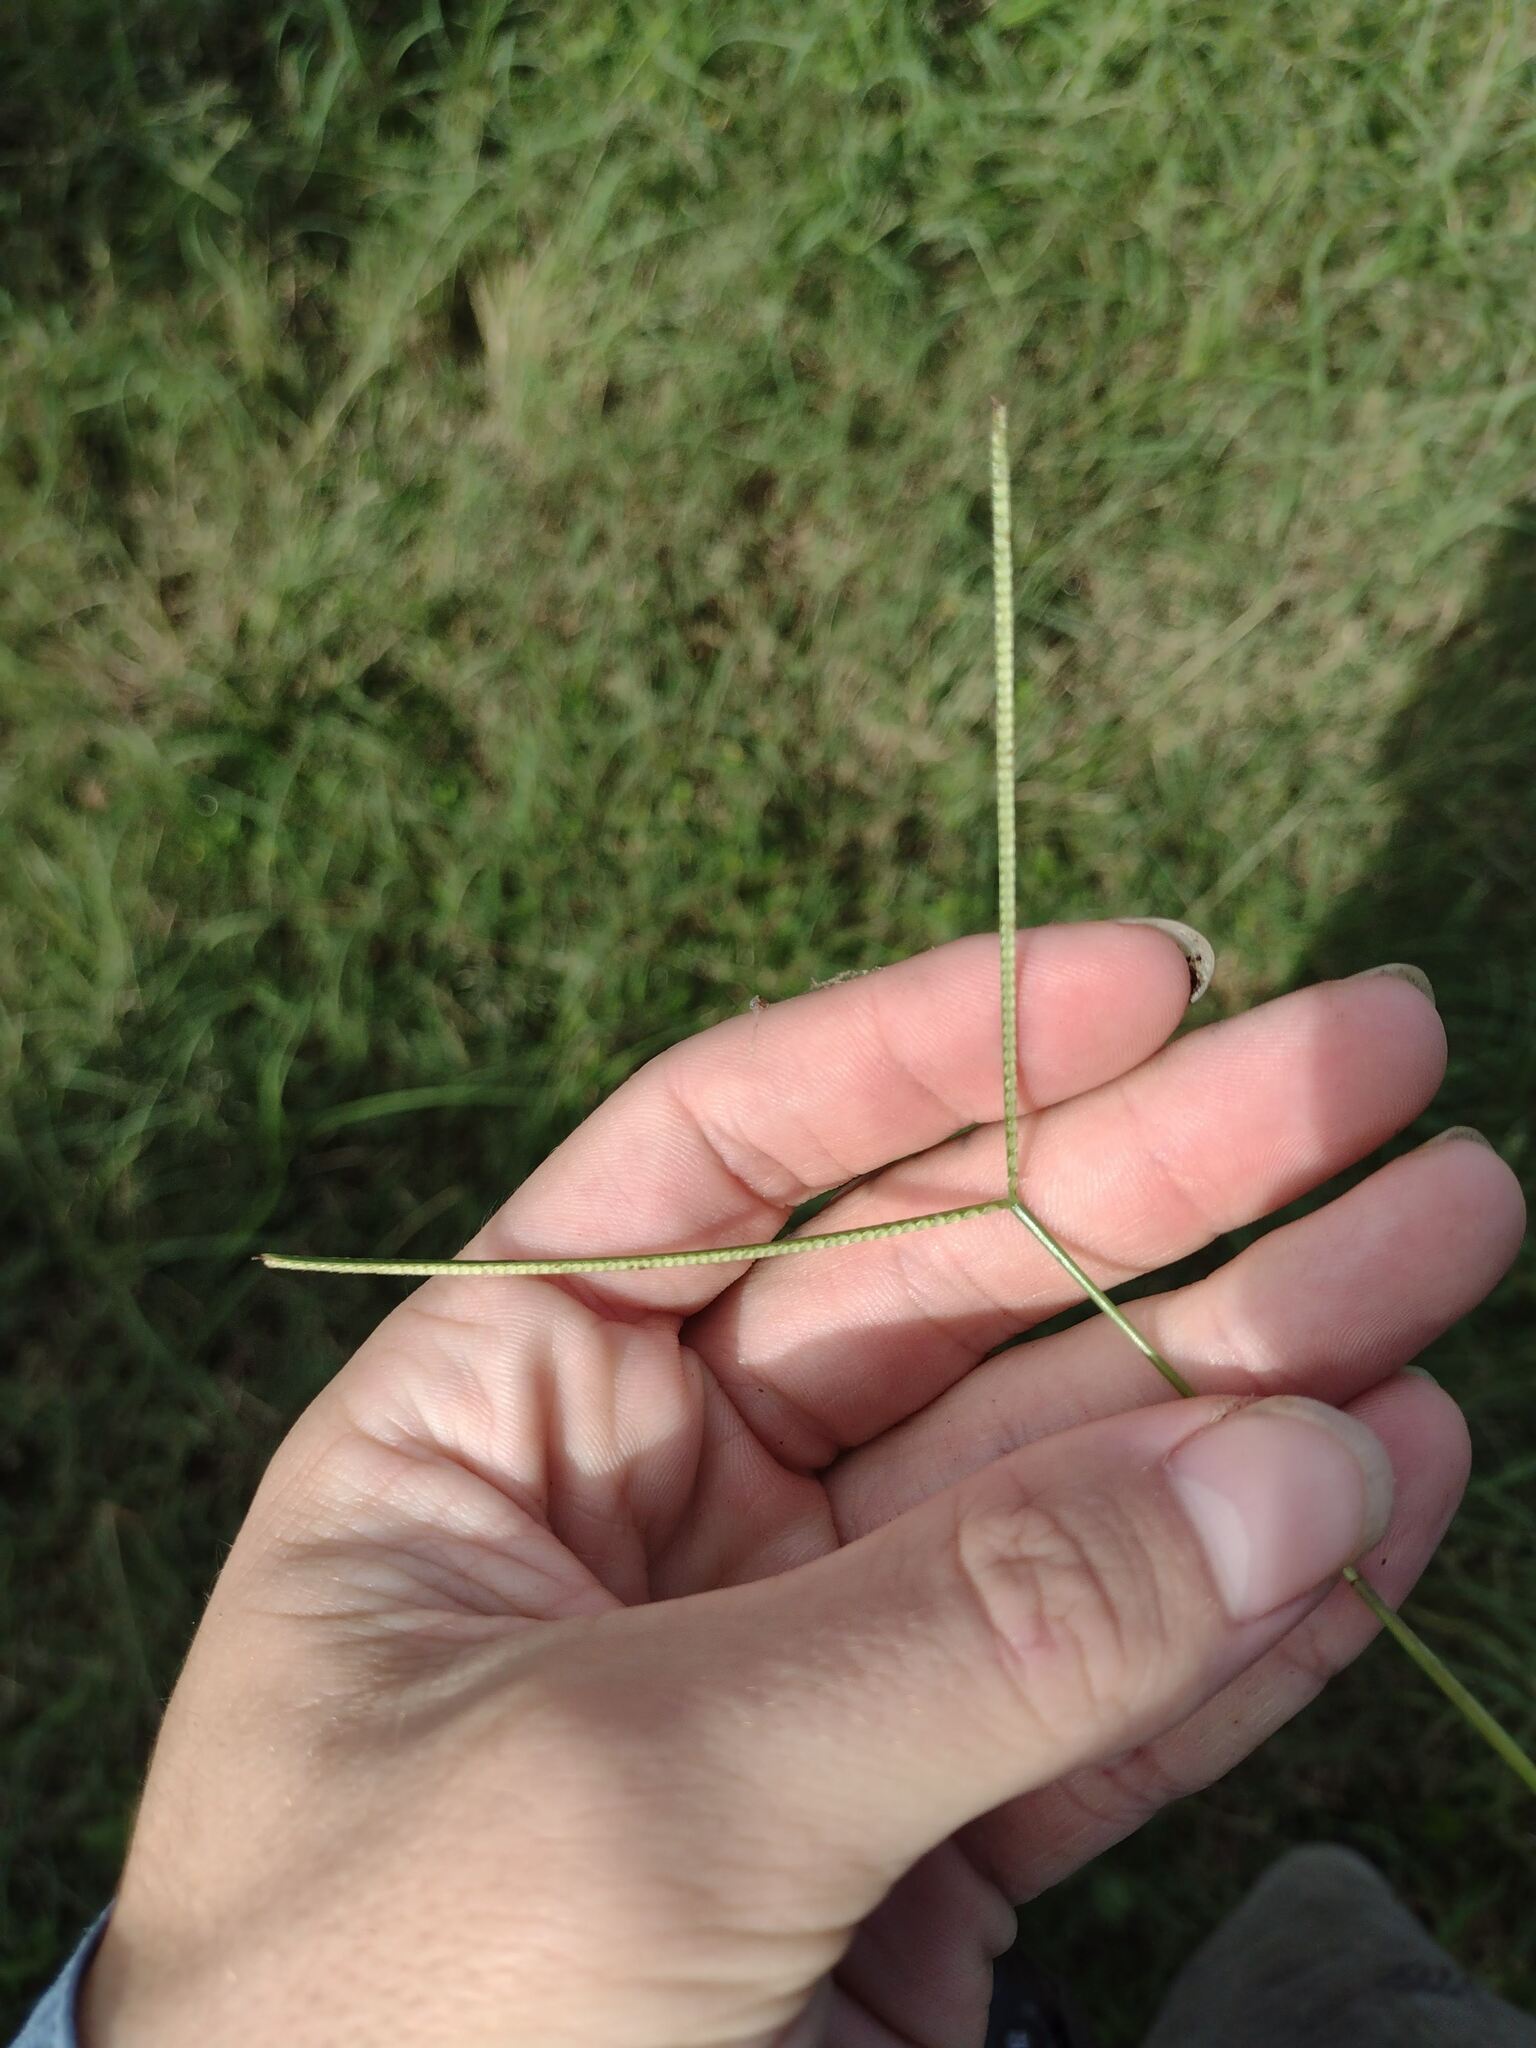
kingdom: Plantae
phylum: Tracheophyta
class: Liliopsida
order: Poales
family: Poaceae
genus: Paspalum
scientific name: Paspalum conjugatum
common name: Hilograss
